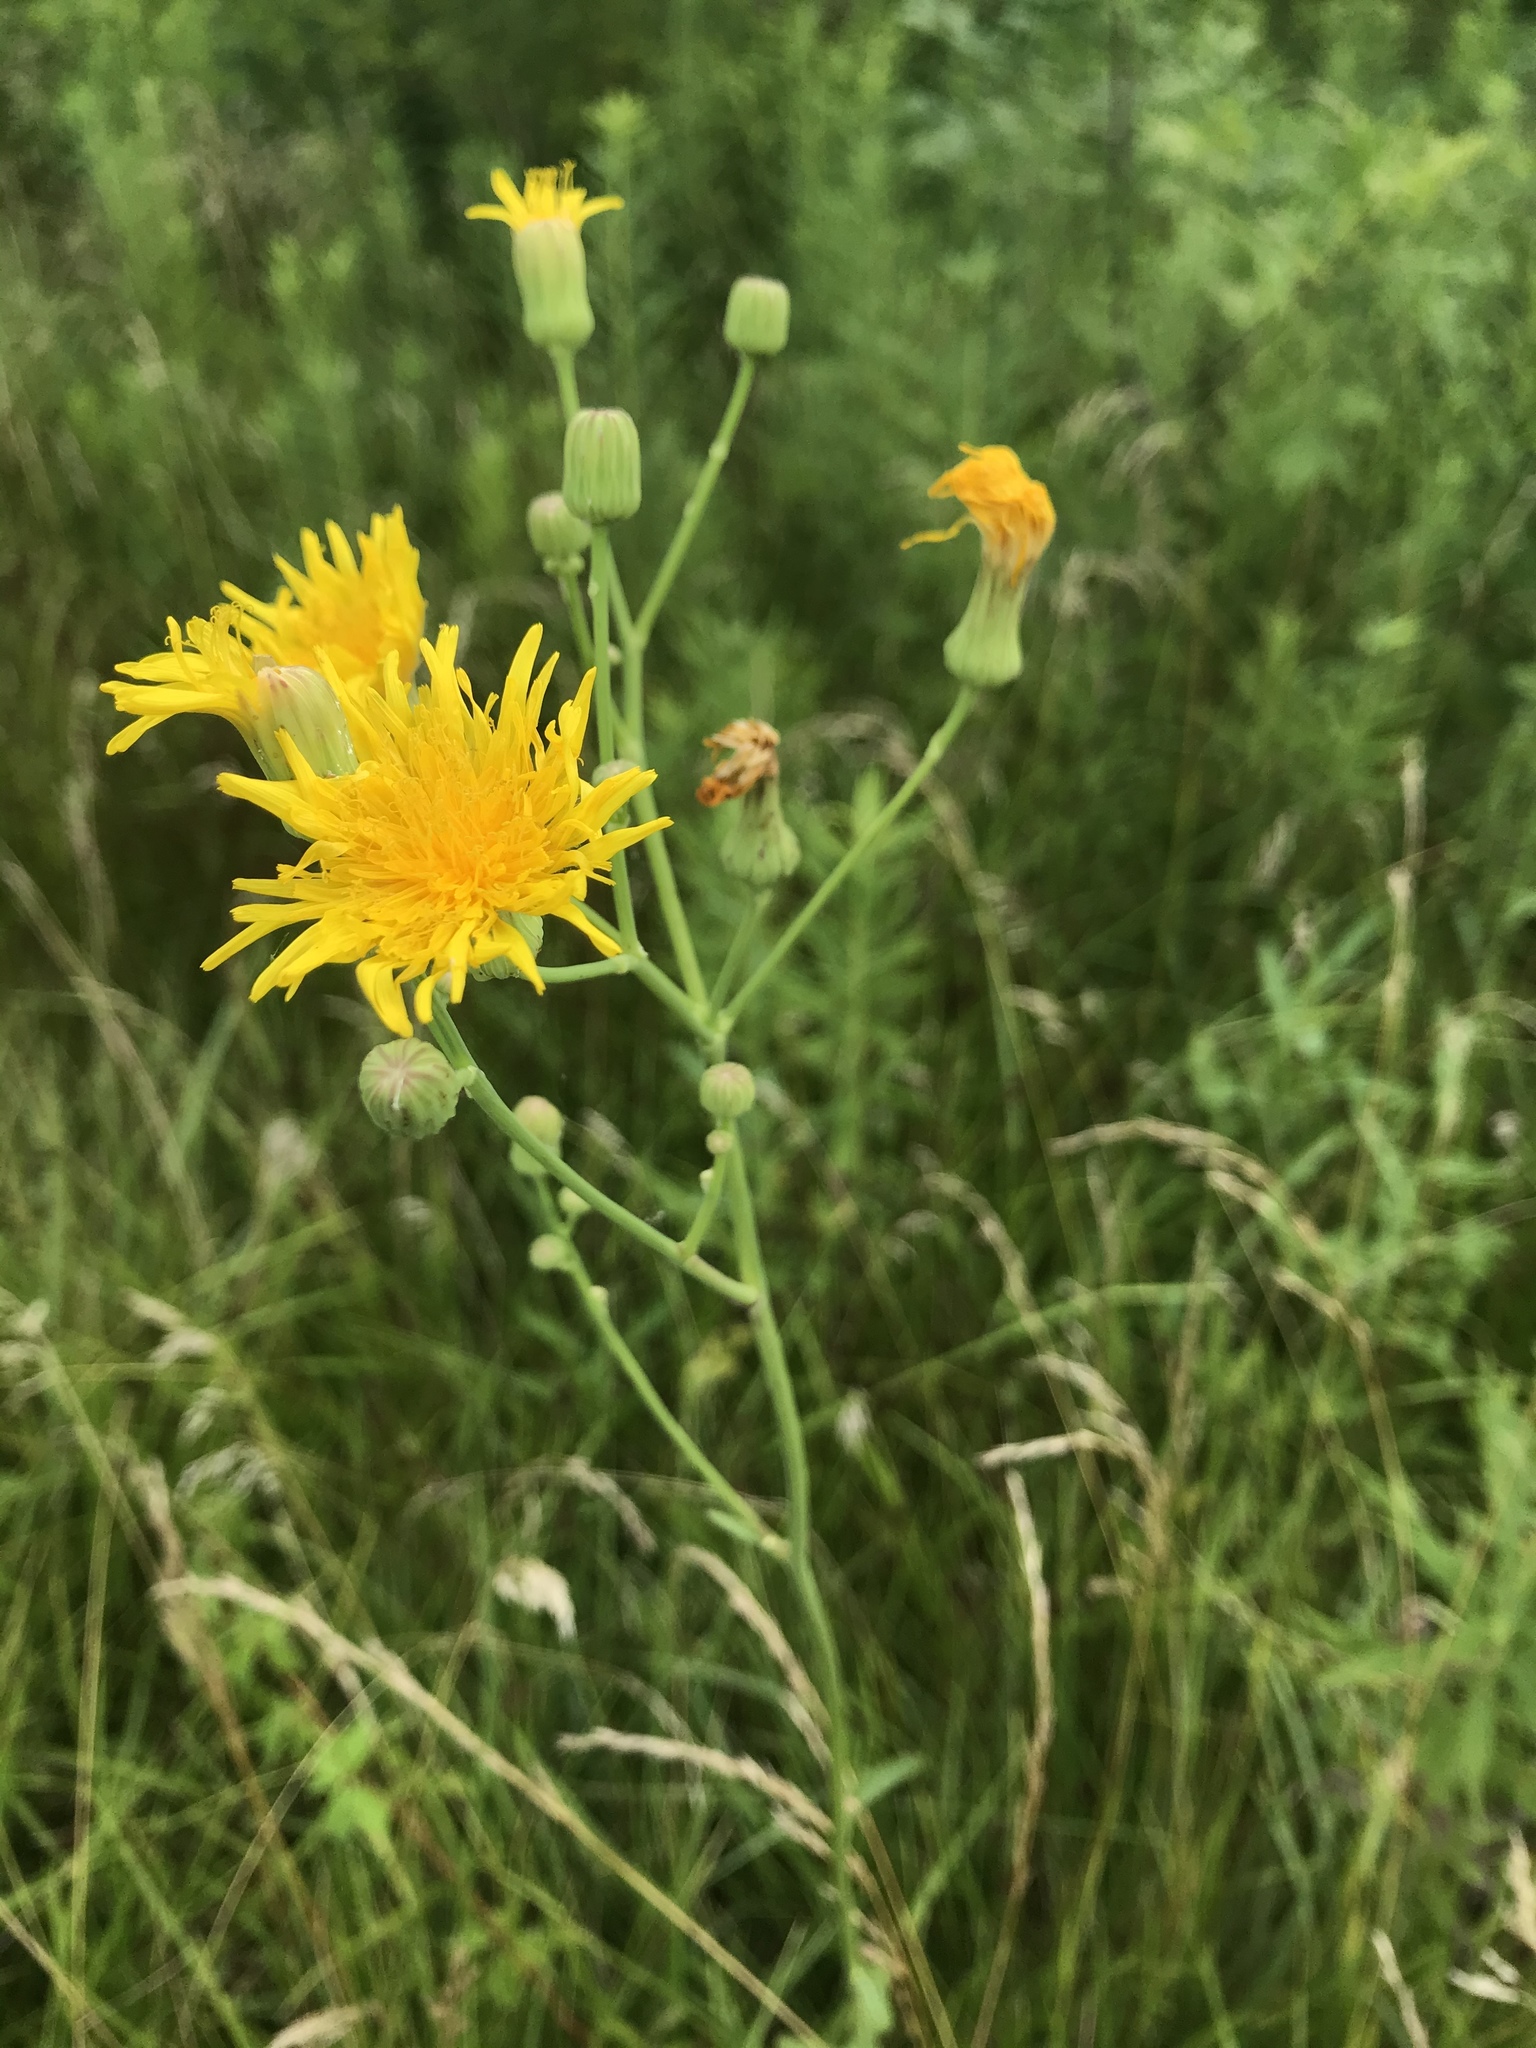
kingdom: Plantae
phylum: Tracheophyta
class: Magnoliopsida
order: Asterales
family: Asteraceae
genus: Sonchus
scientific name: Sonchus arvensis
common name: Perennial sow-thistle
